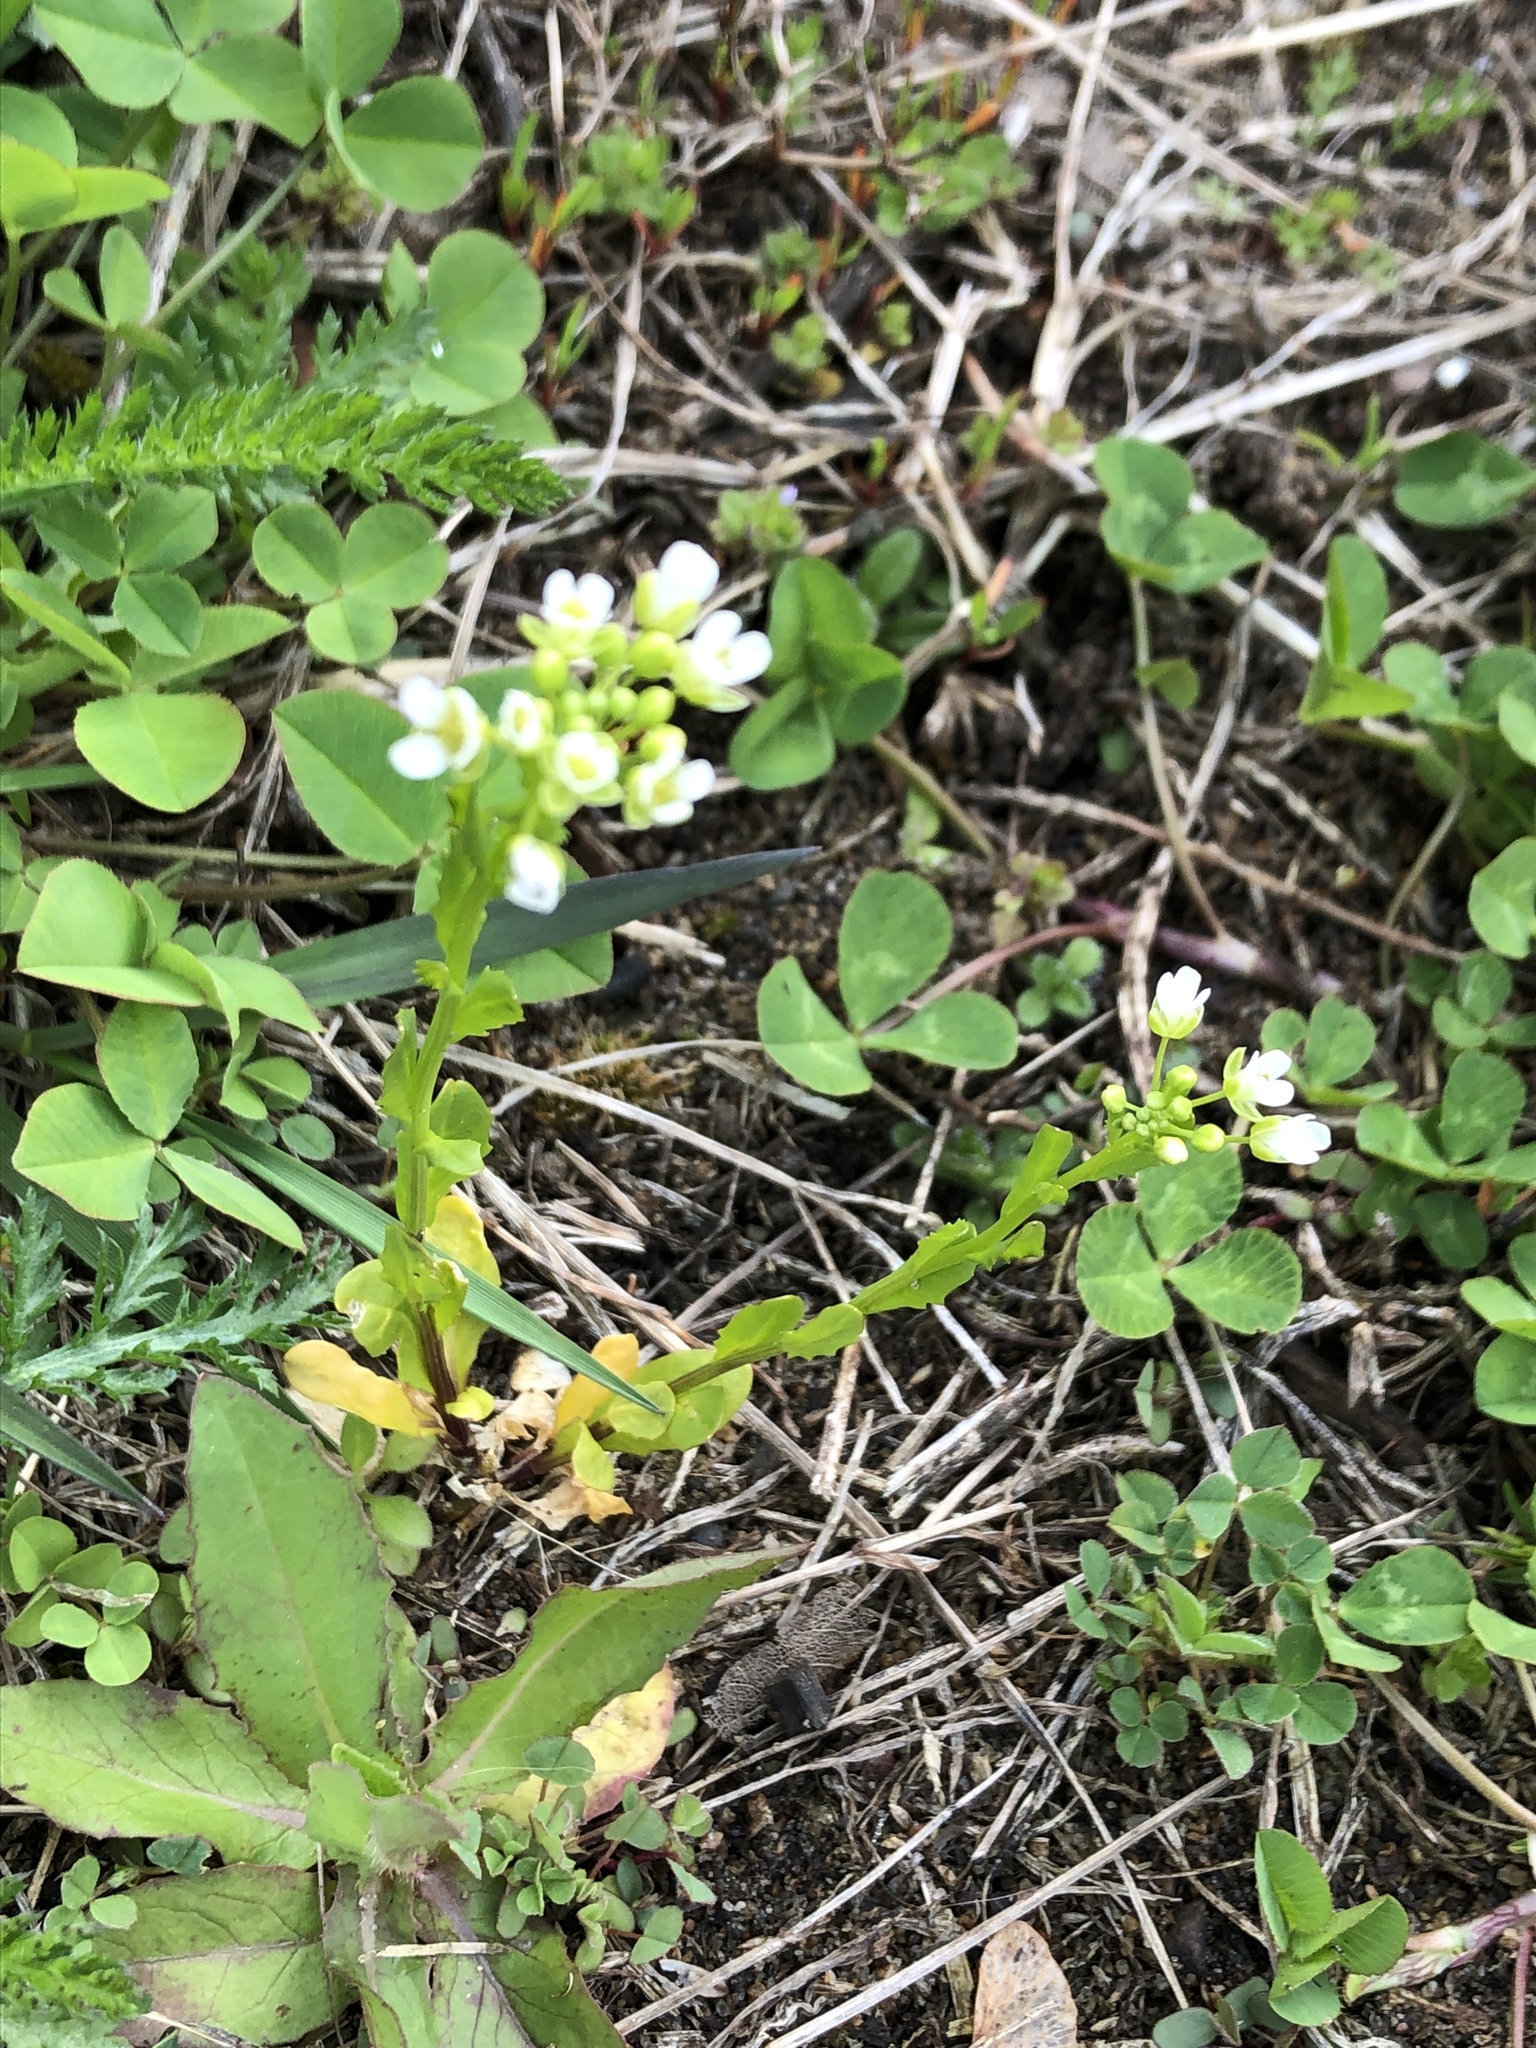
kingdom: Plantae
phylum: Tracheophyta
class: Magnoliopsida
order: Brassicales
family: Brassicaceae
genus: Thlaspi
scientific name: Thlaspi arvense
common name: Field pennycress
